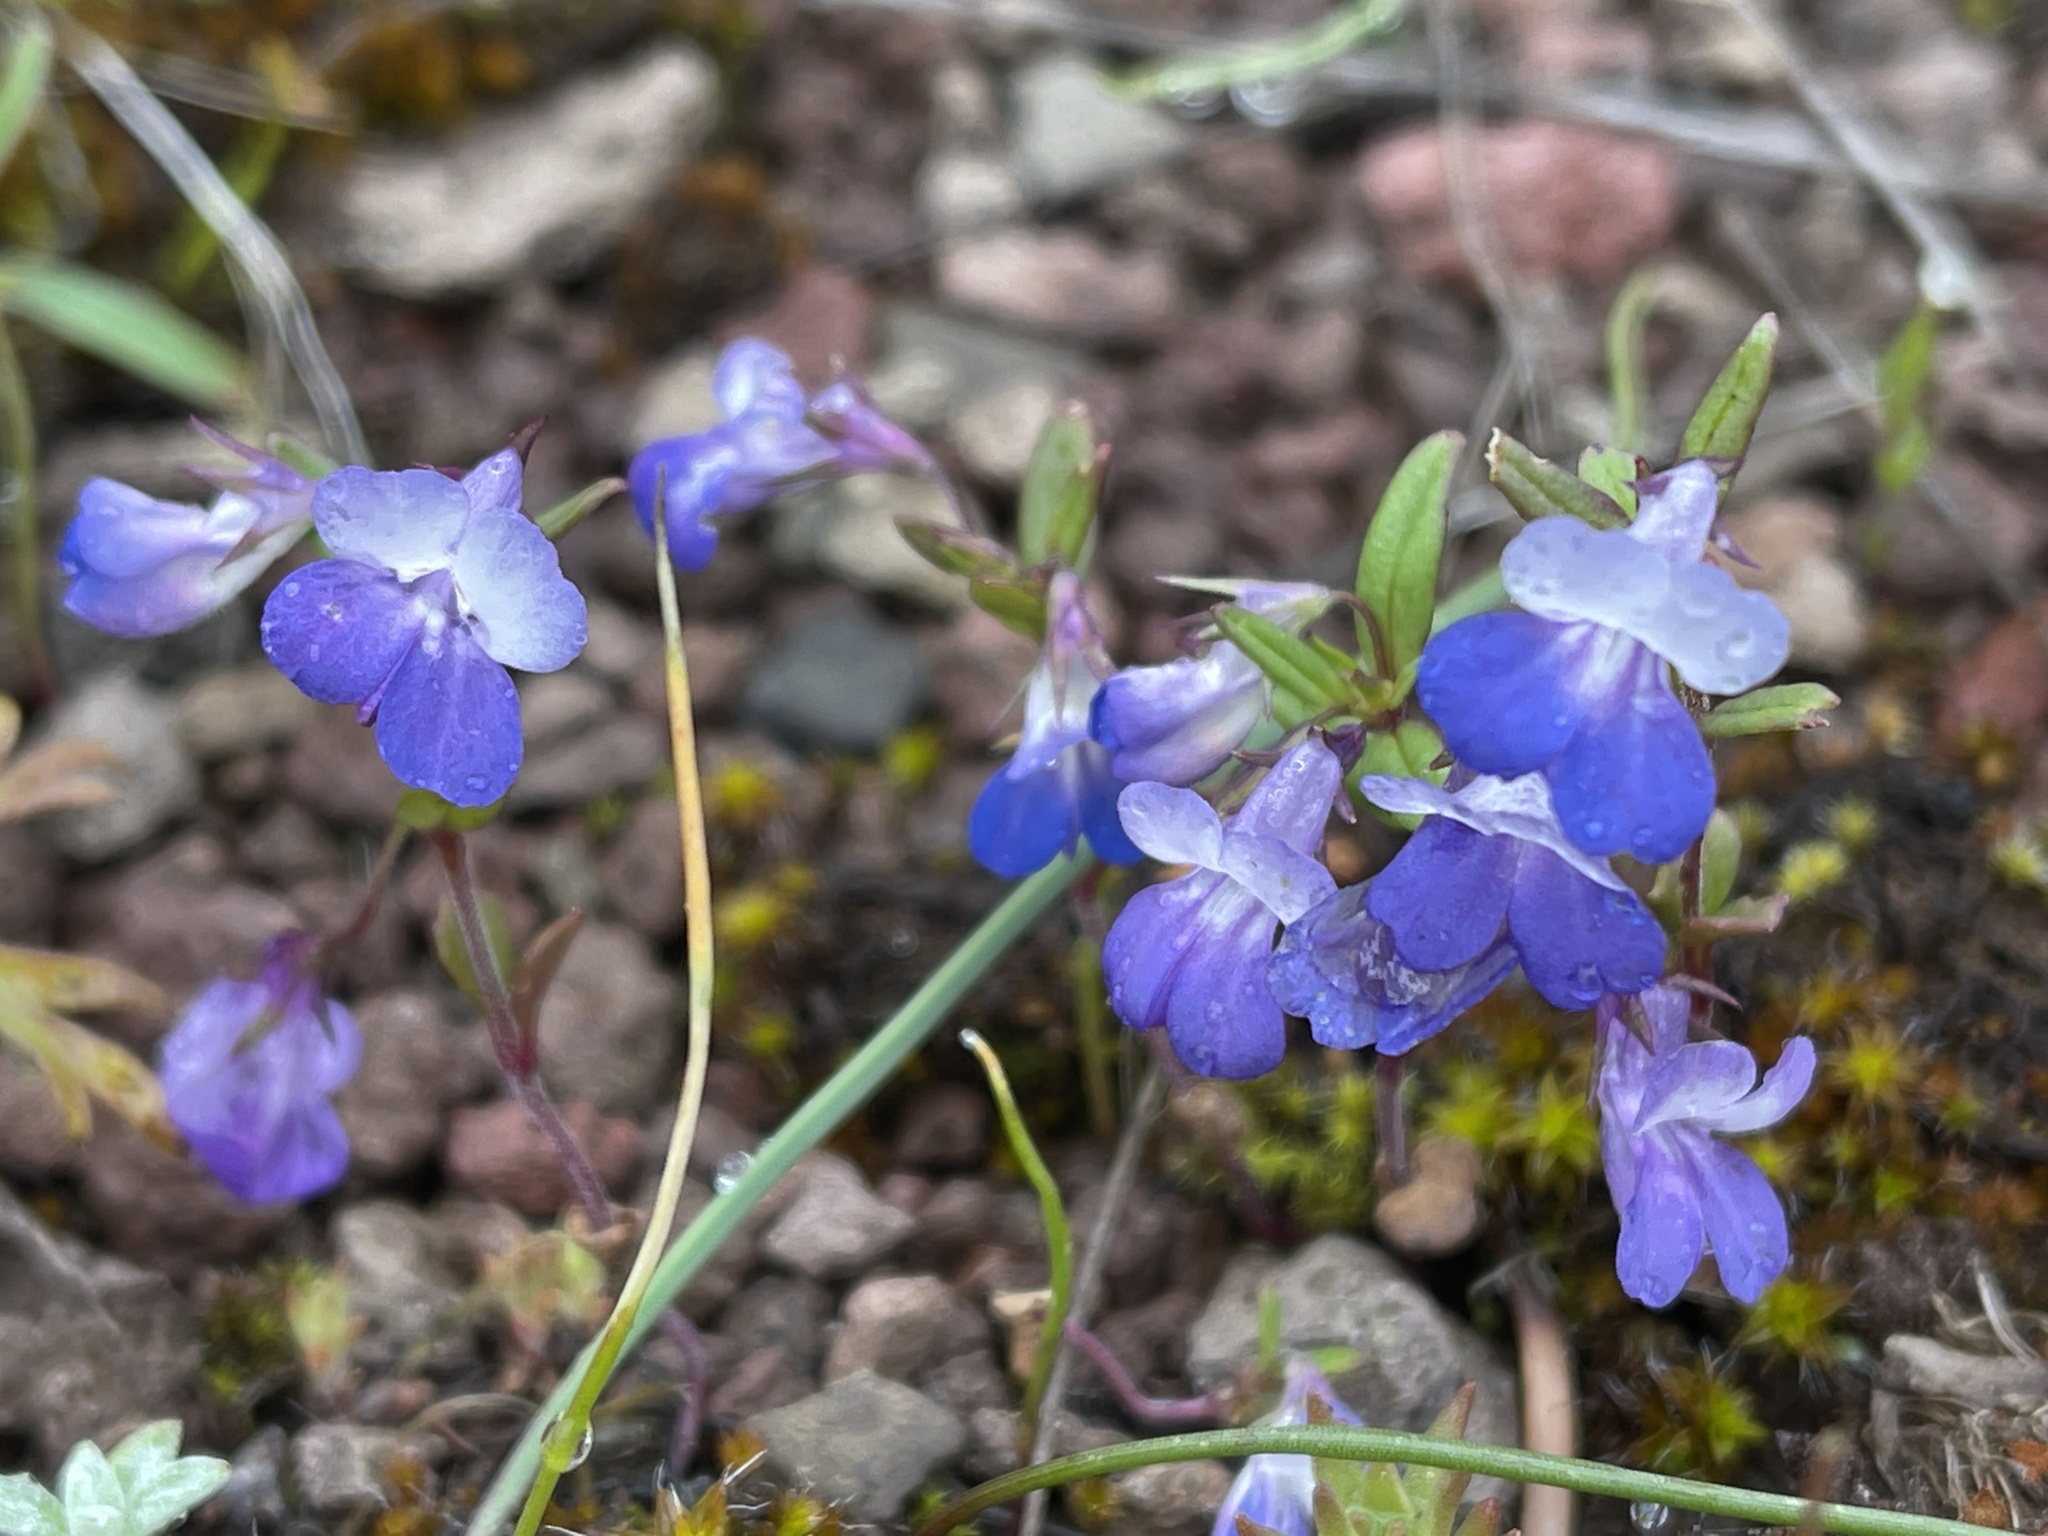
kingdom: Plantae
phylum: Tracheophyta
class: Magnoliopsida
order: Lamiales
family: Plantaginaceae
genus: Collinsia
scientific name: Collinsia grandiflora
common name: Large-flower blue-eyed-mary
